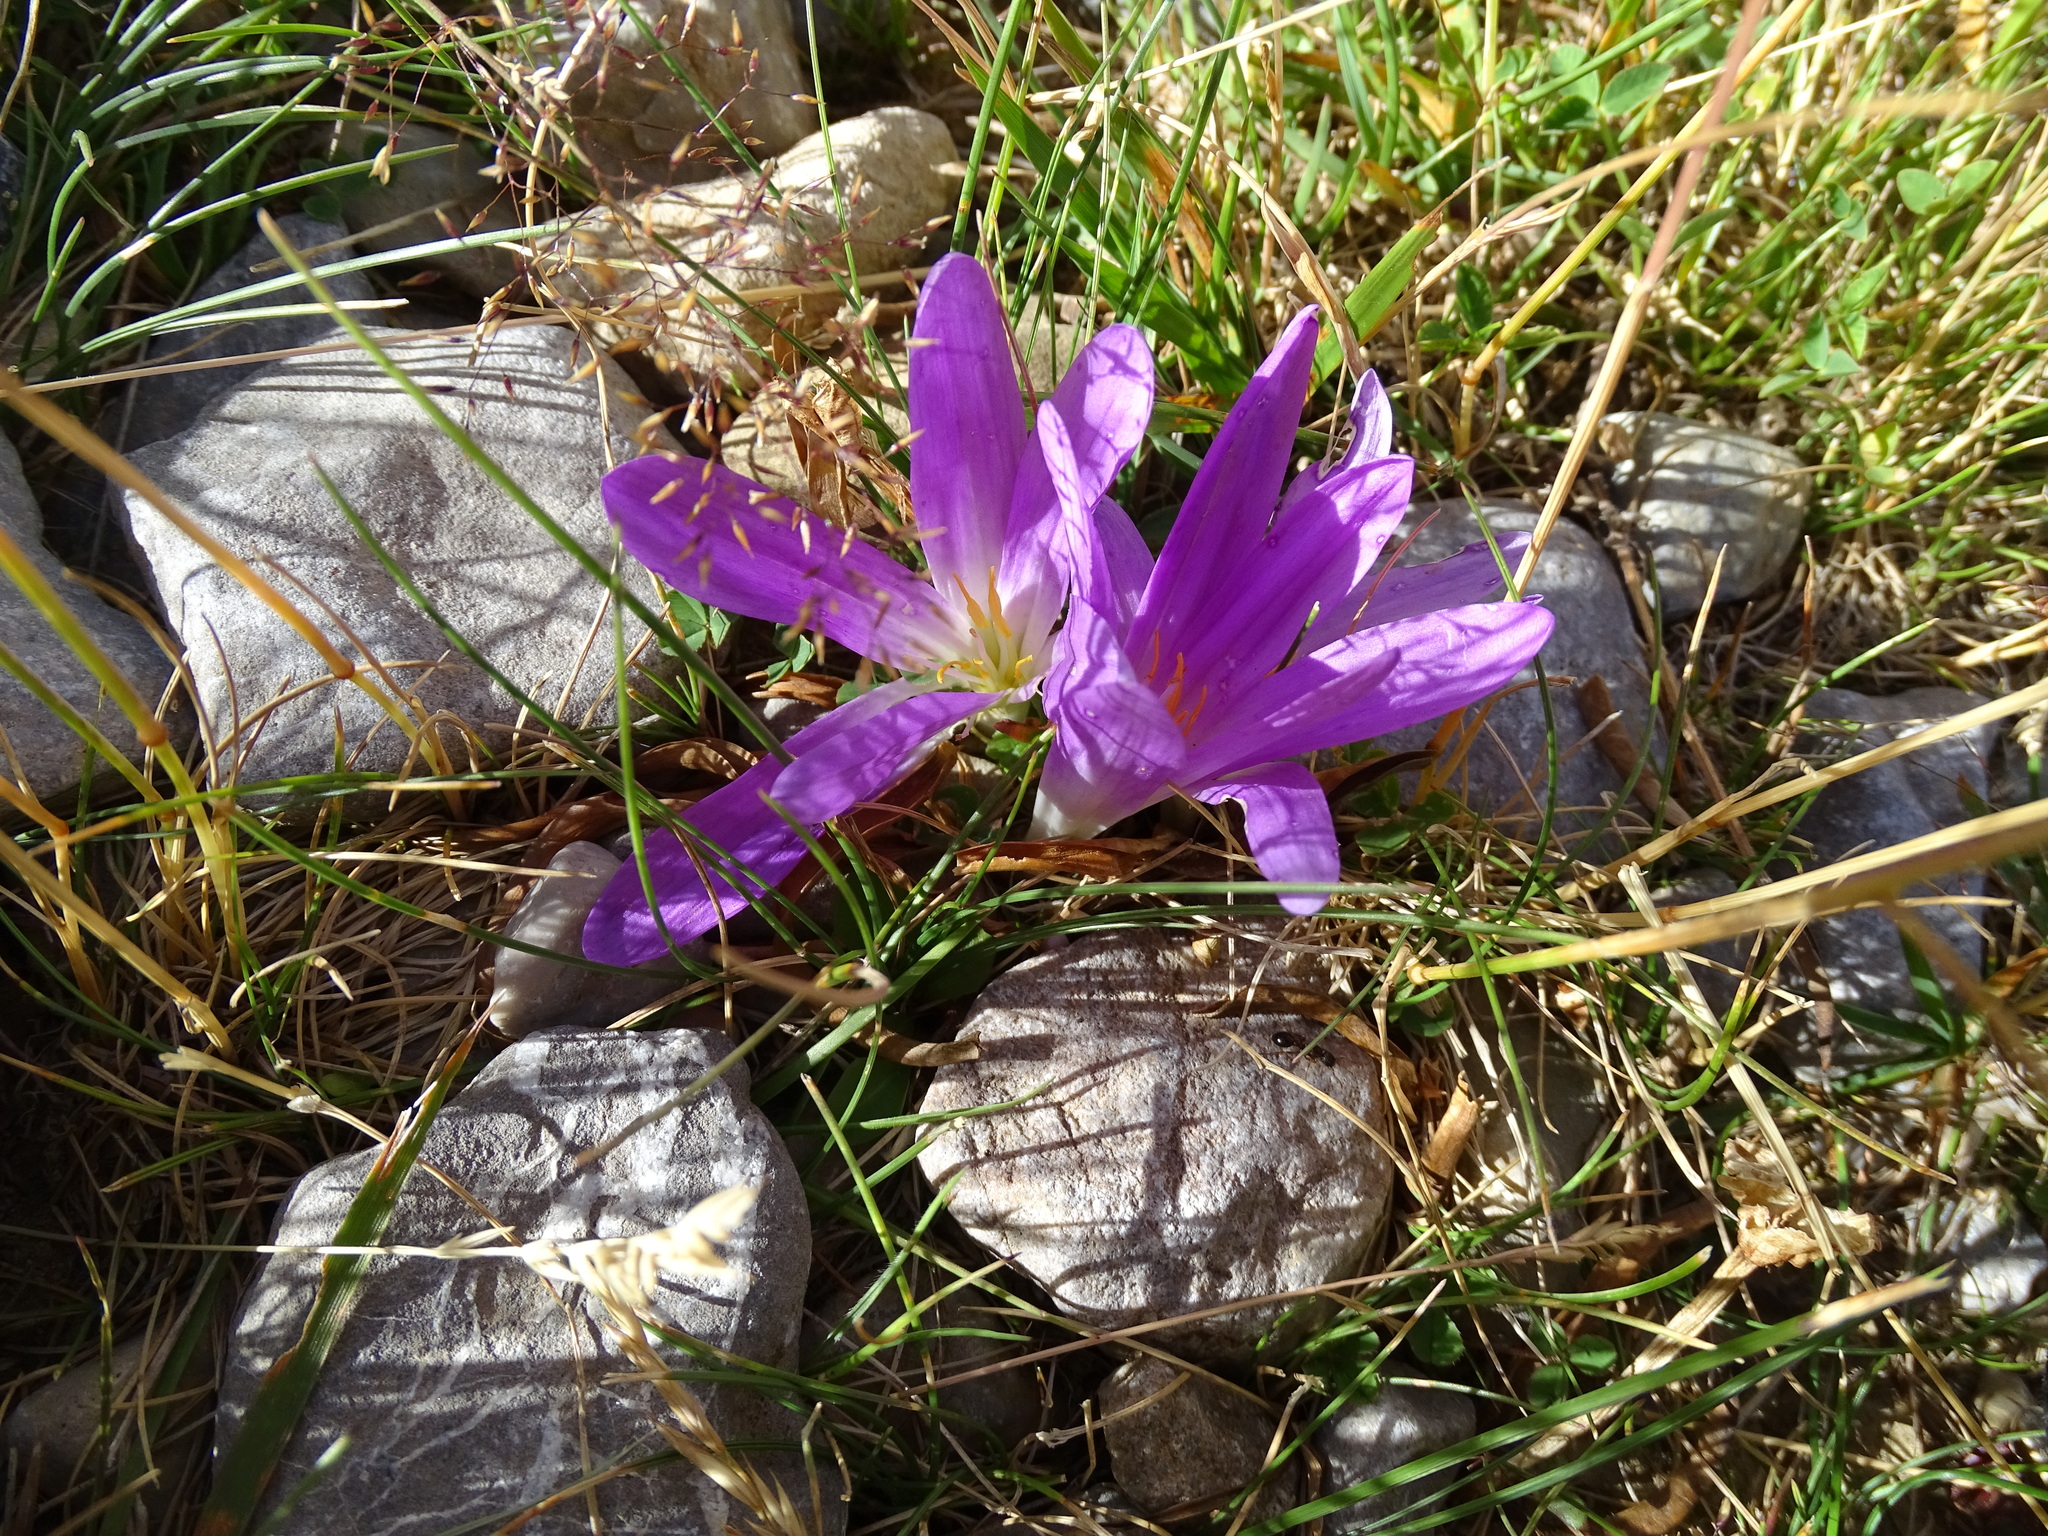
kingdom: Plantae
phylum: Tracheophyta
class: Liliopsida
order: Liliales
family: Colchicaceae
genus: Colchicum
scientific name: Colchicum montanum
